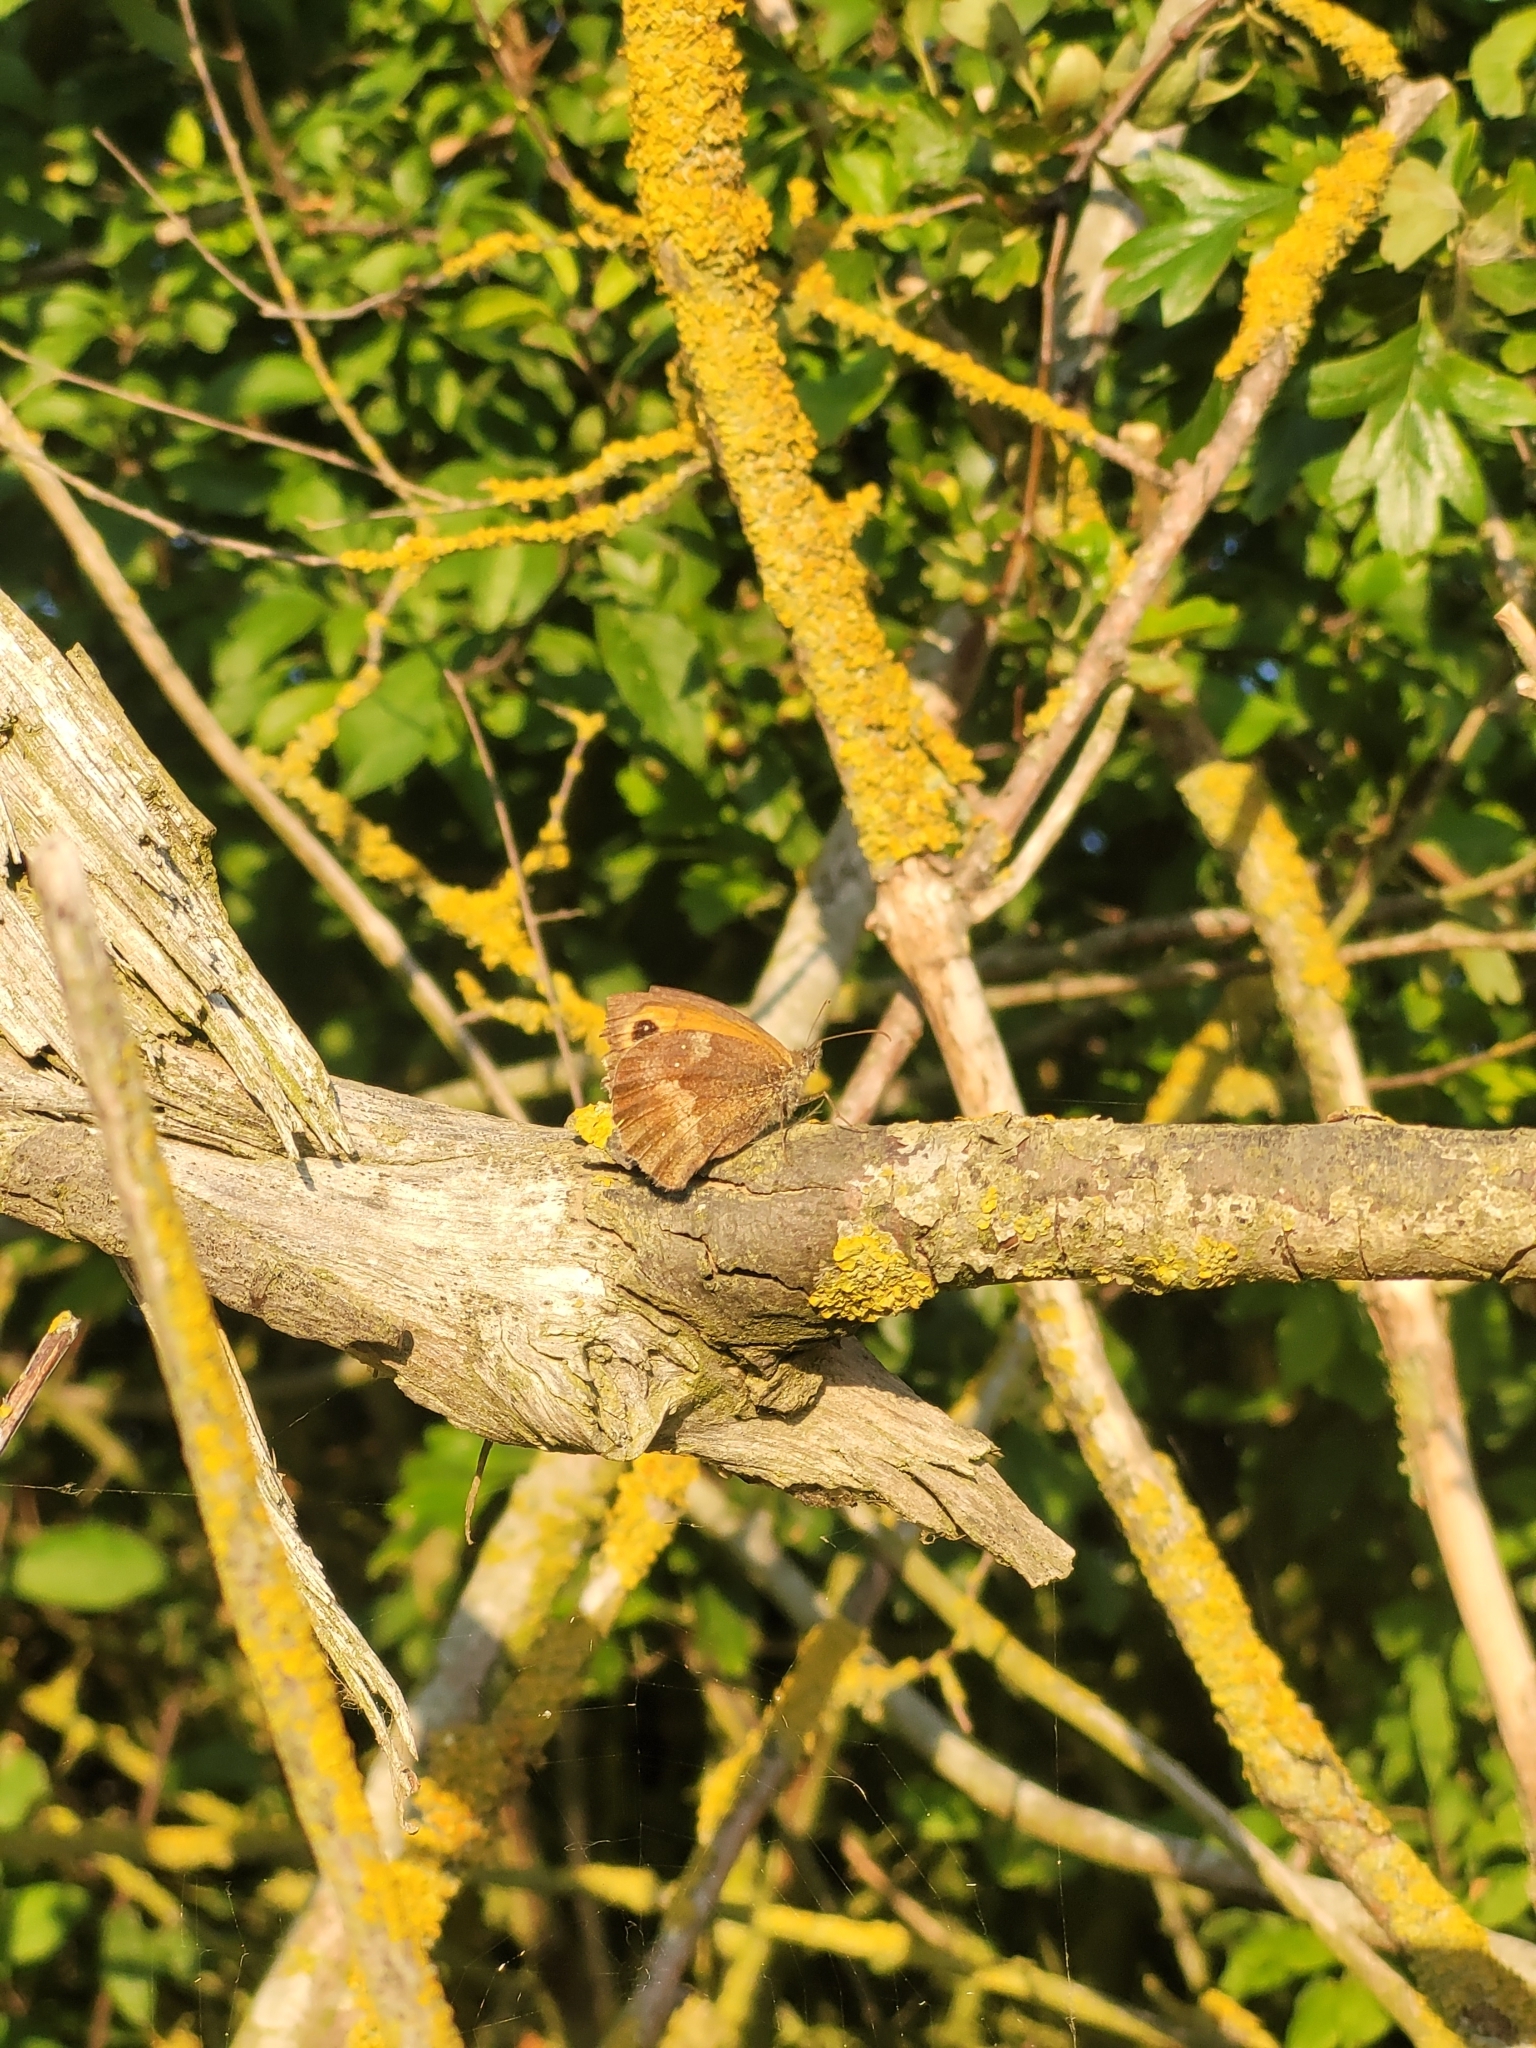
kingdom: Animalia
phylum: Arthropoda
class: Insecta
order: Lepidoptera
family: Nymphalidae
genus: Pyronia
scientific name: Pyronia tithonus
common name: Gatekeeper
